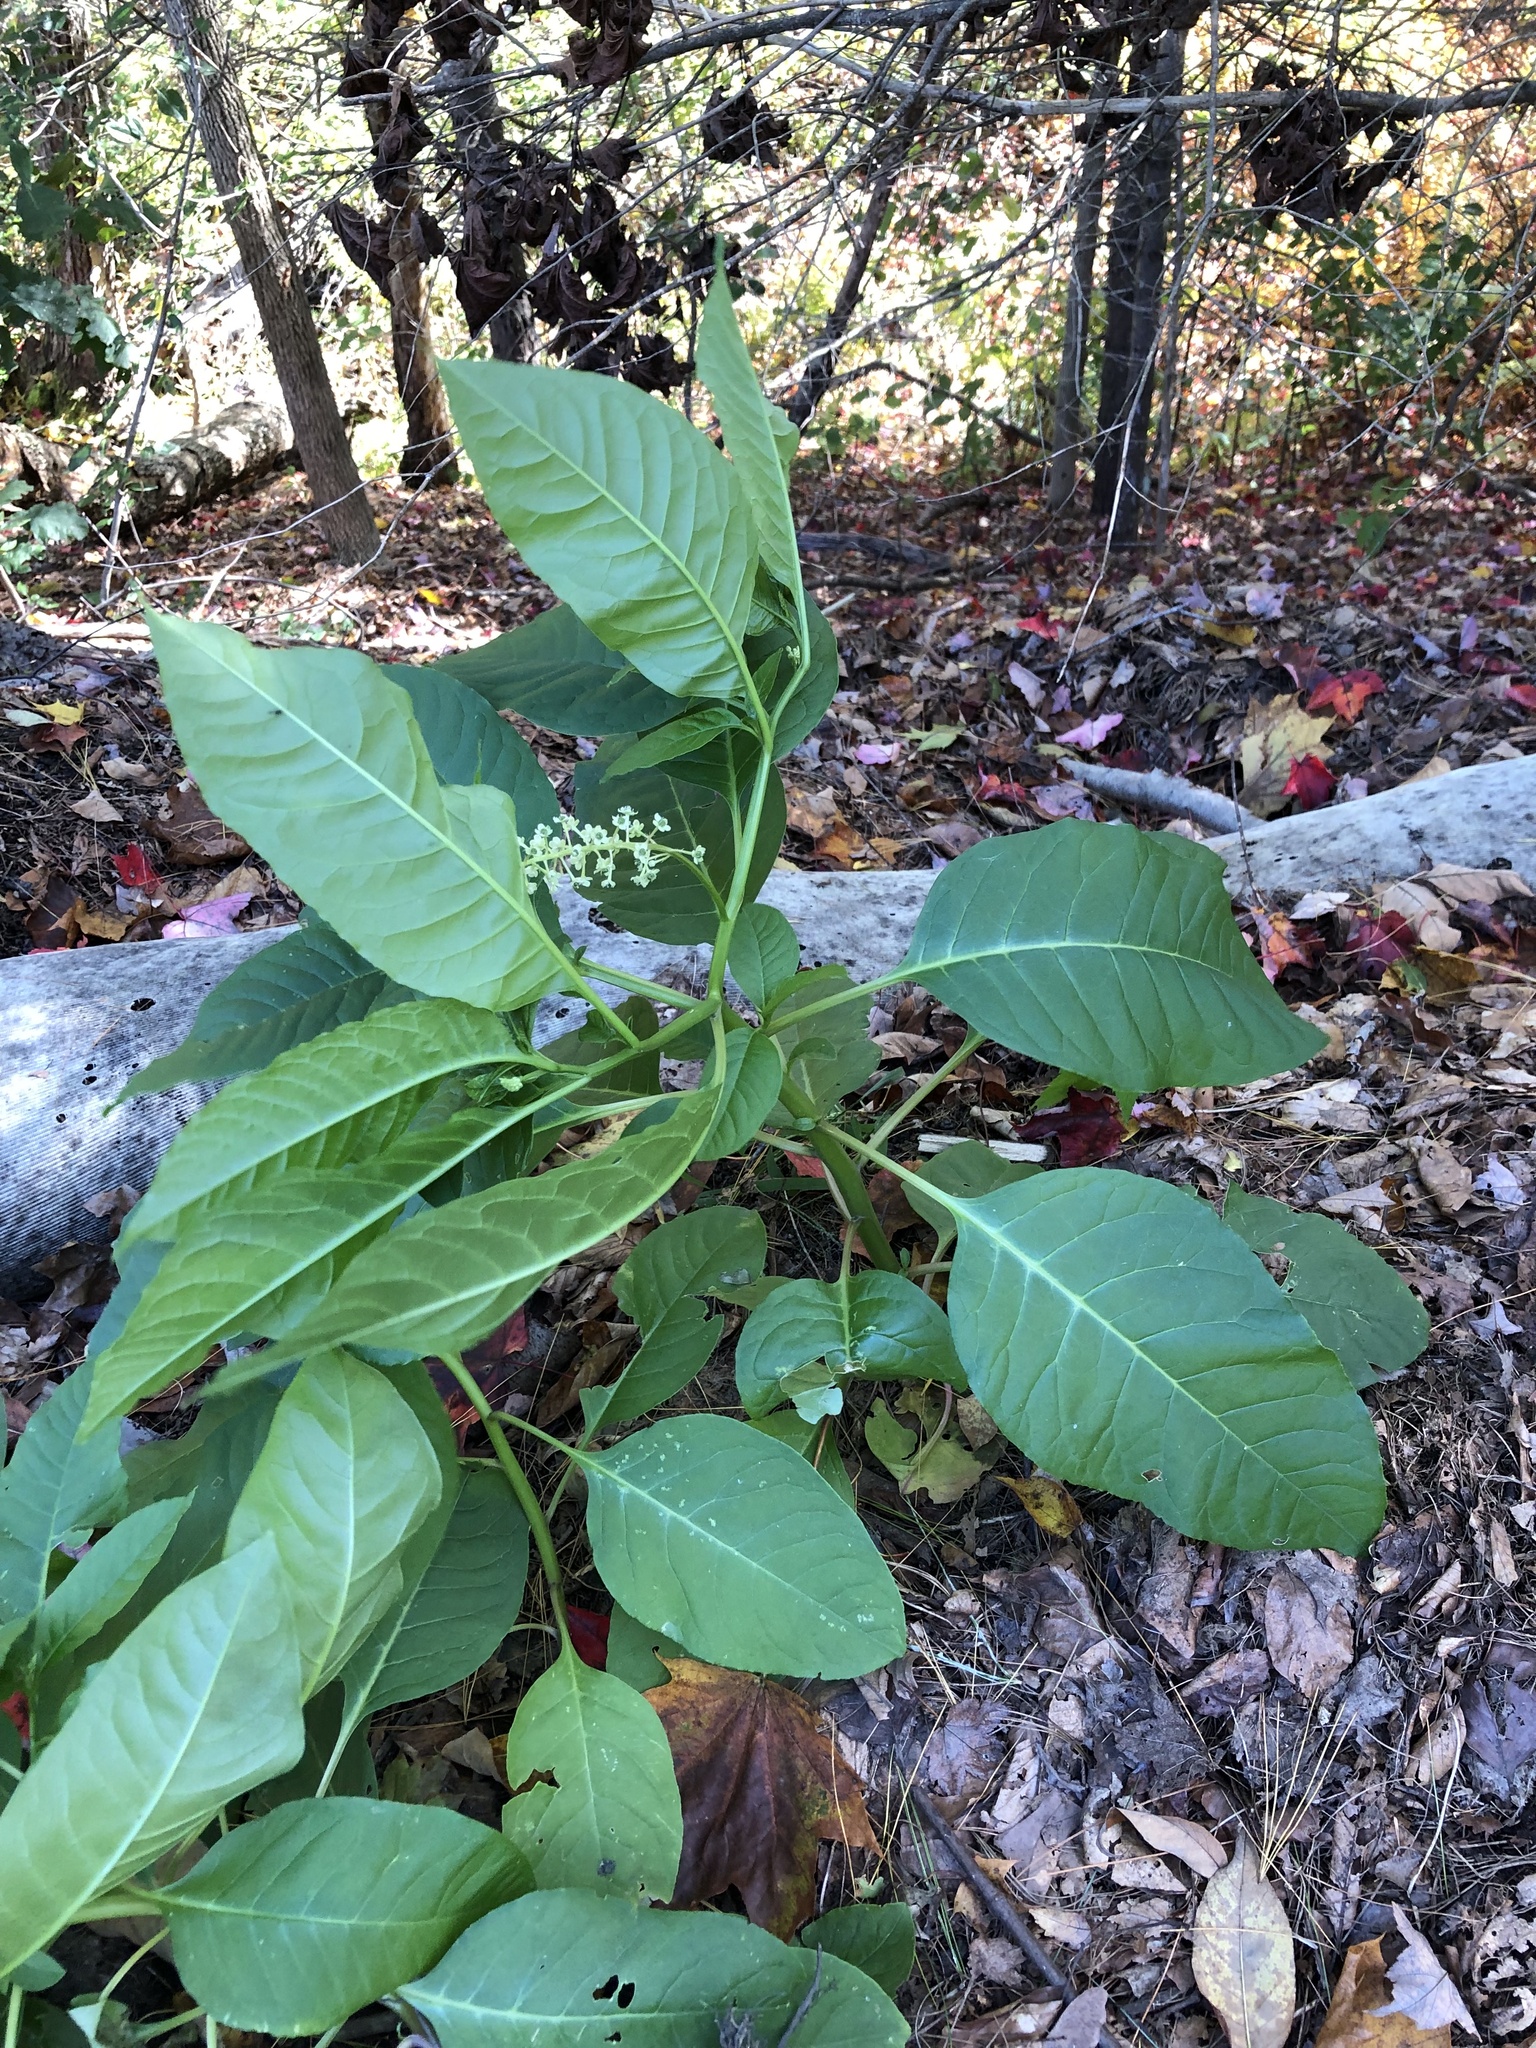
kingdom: Plantae
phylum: Tracheophyta
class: Magnoliopsida
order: Caryophyllales
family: Phytolaccaceae
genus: Phytolacca
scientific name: Phytolacca americana
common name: American pokeweed
